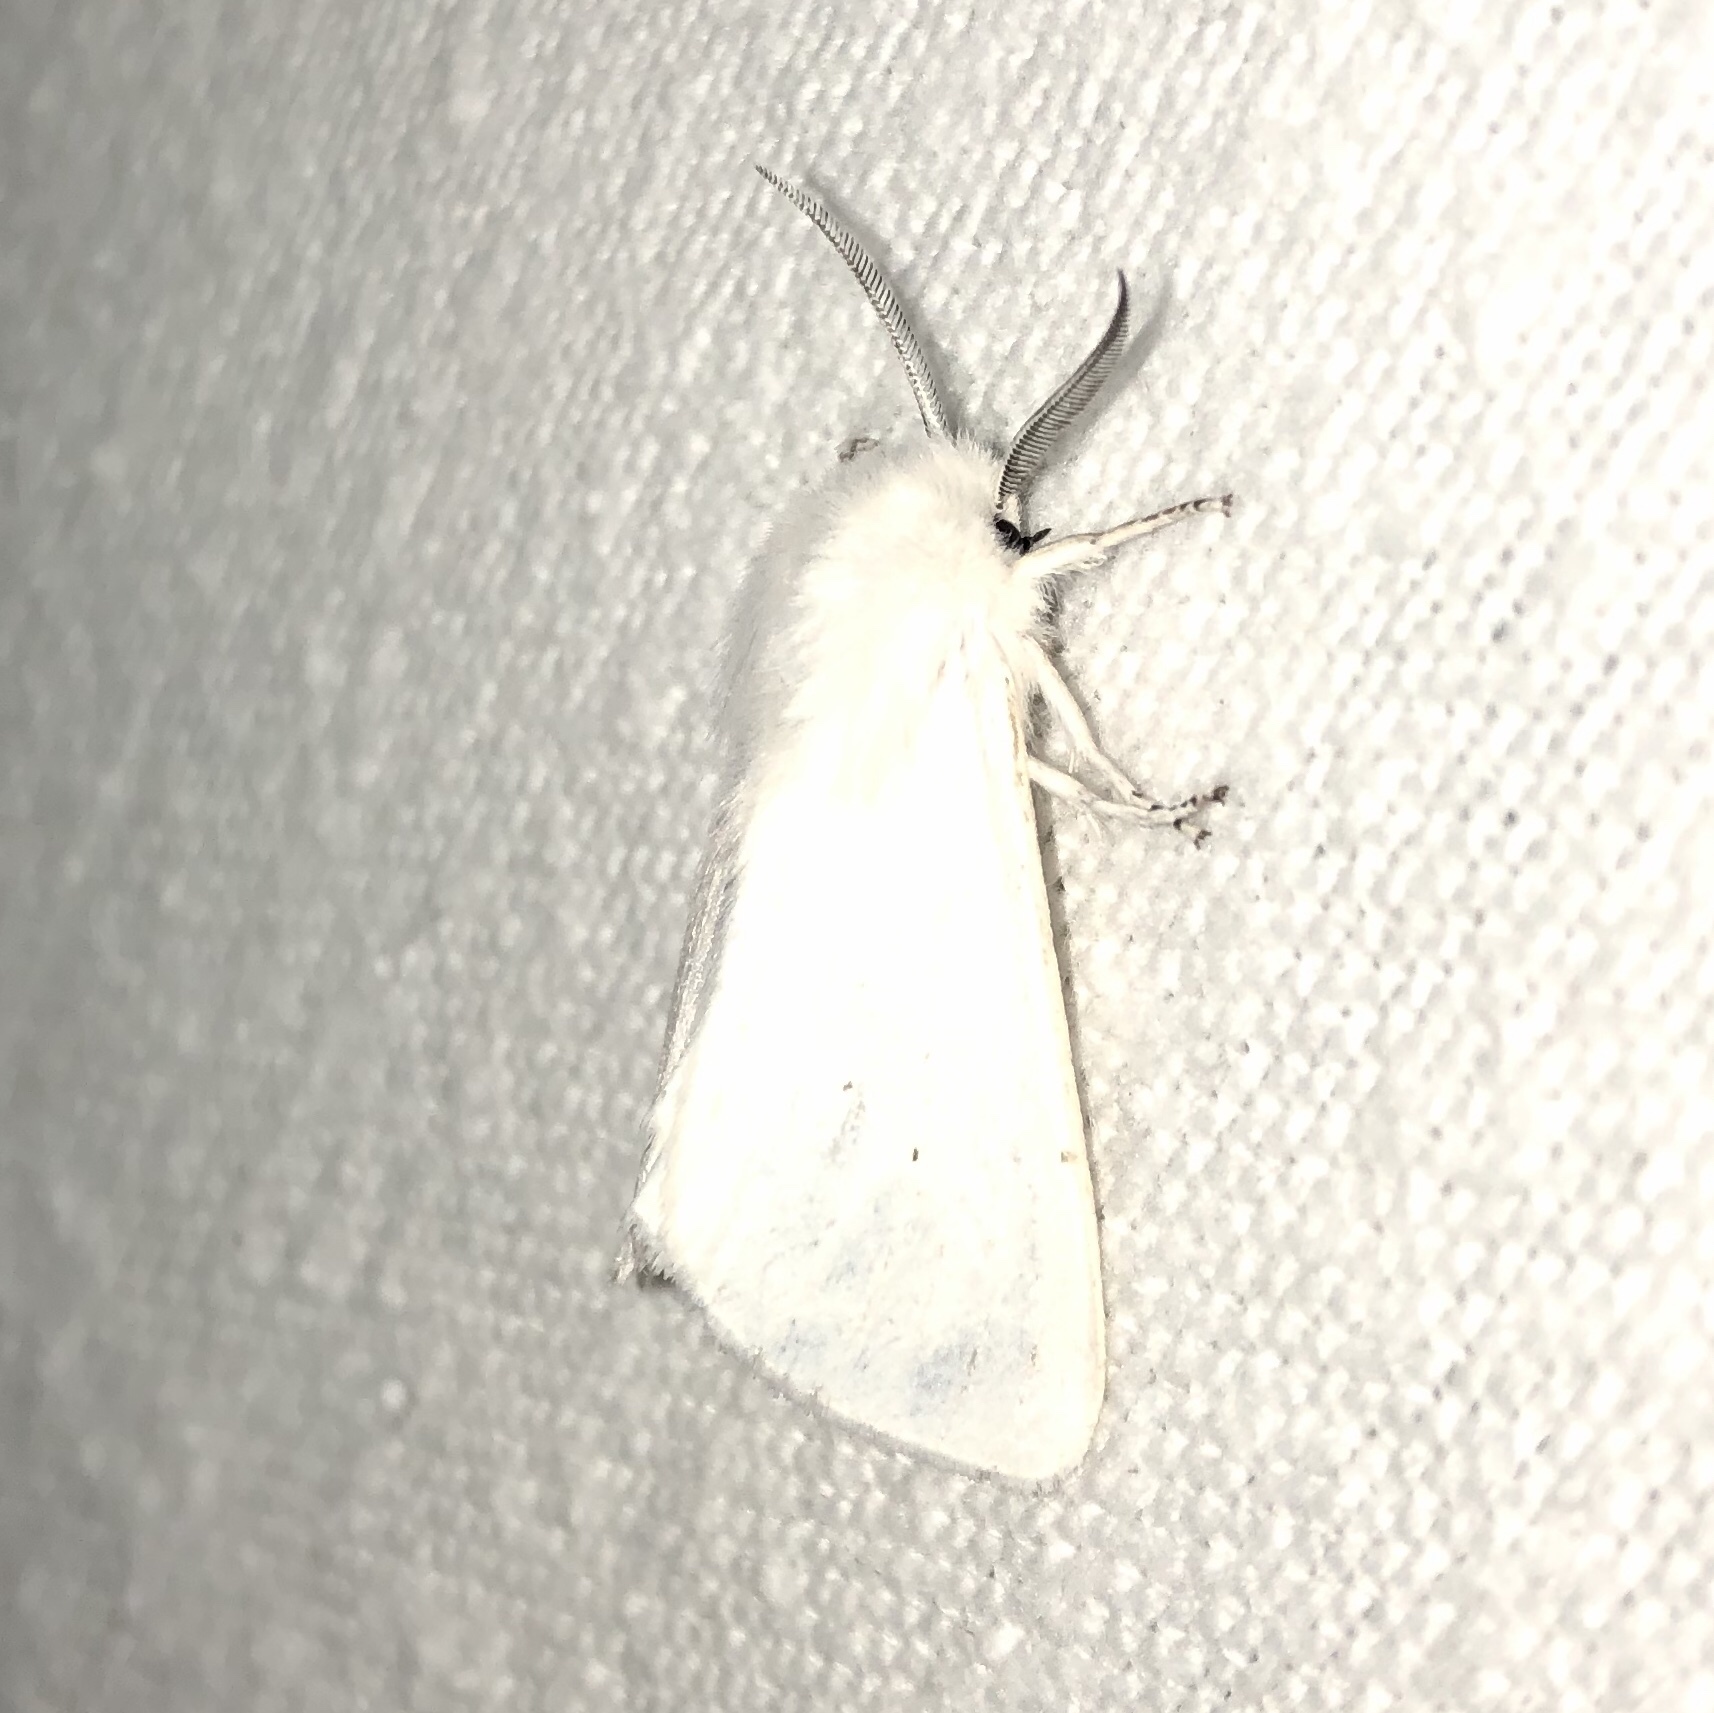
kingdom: Animalia
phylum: Arthropoda
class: Insecta
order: Lepidoptera
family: Erebidae
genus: Spilosoma
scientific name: Spilosoma virginica
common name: Virginia tiger moth
